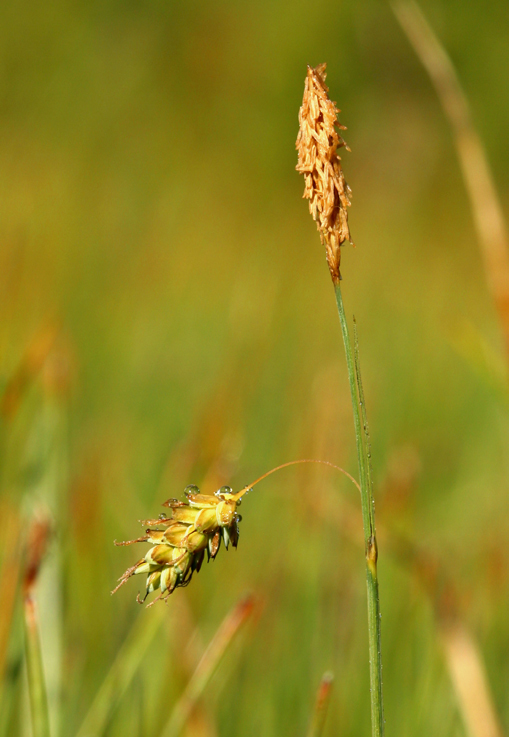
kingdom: Plantae
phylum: Tracheophyta
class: Liliopsida
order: Poales
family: Cyperaceae
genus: Carex
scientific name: Carex limosa
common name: Bog sedge
